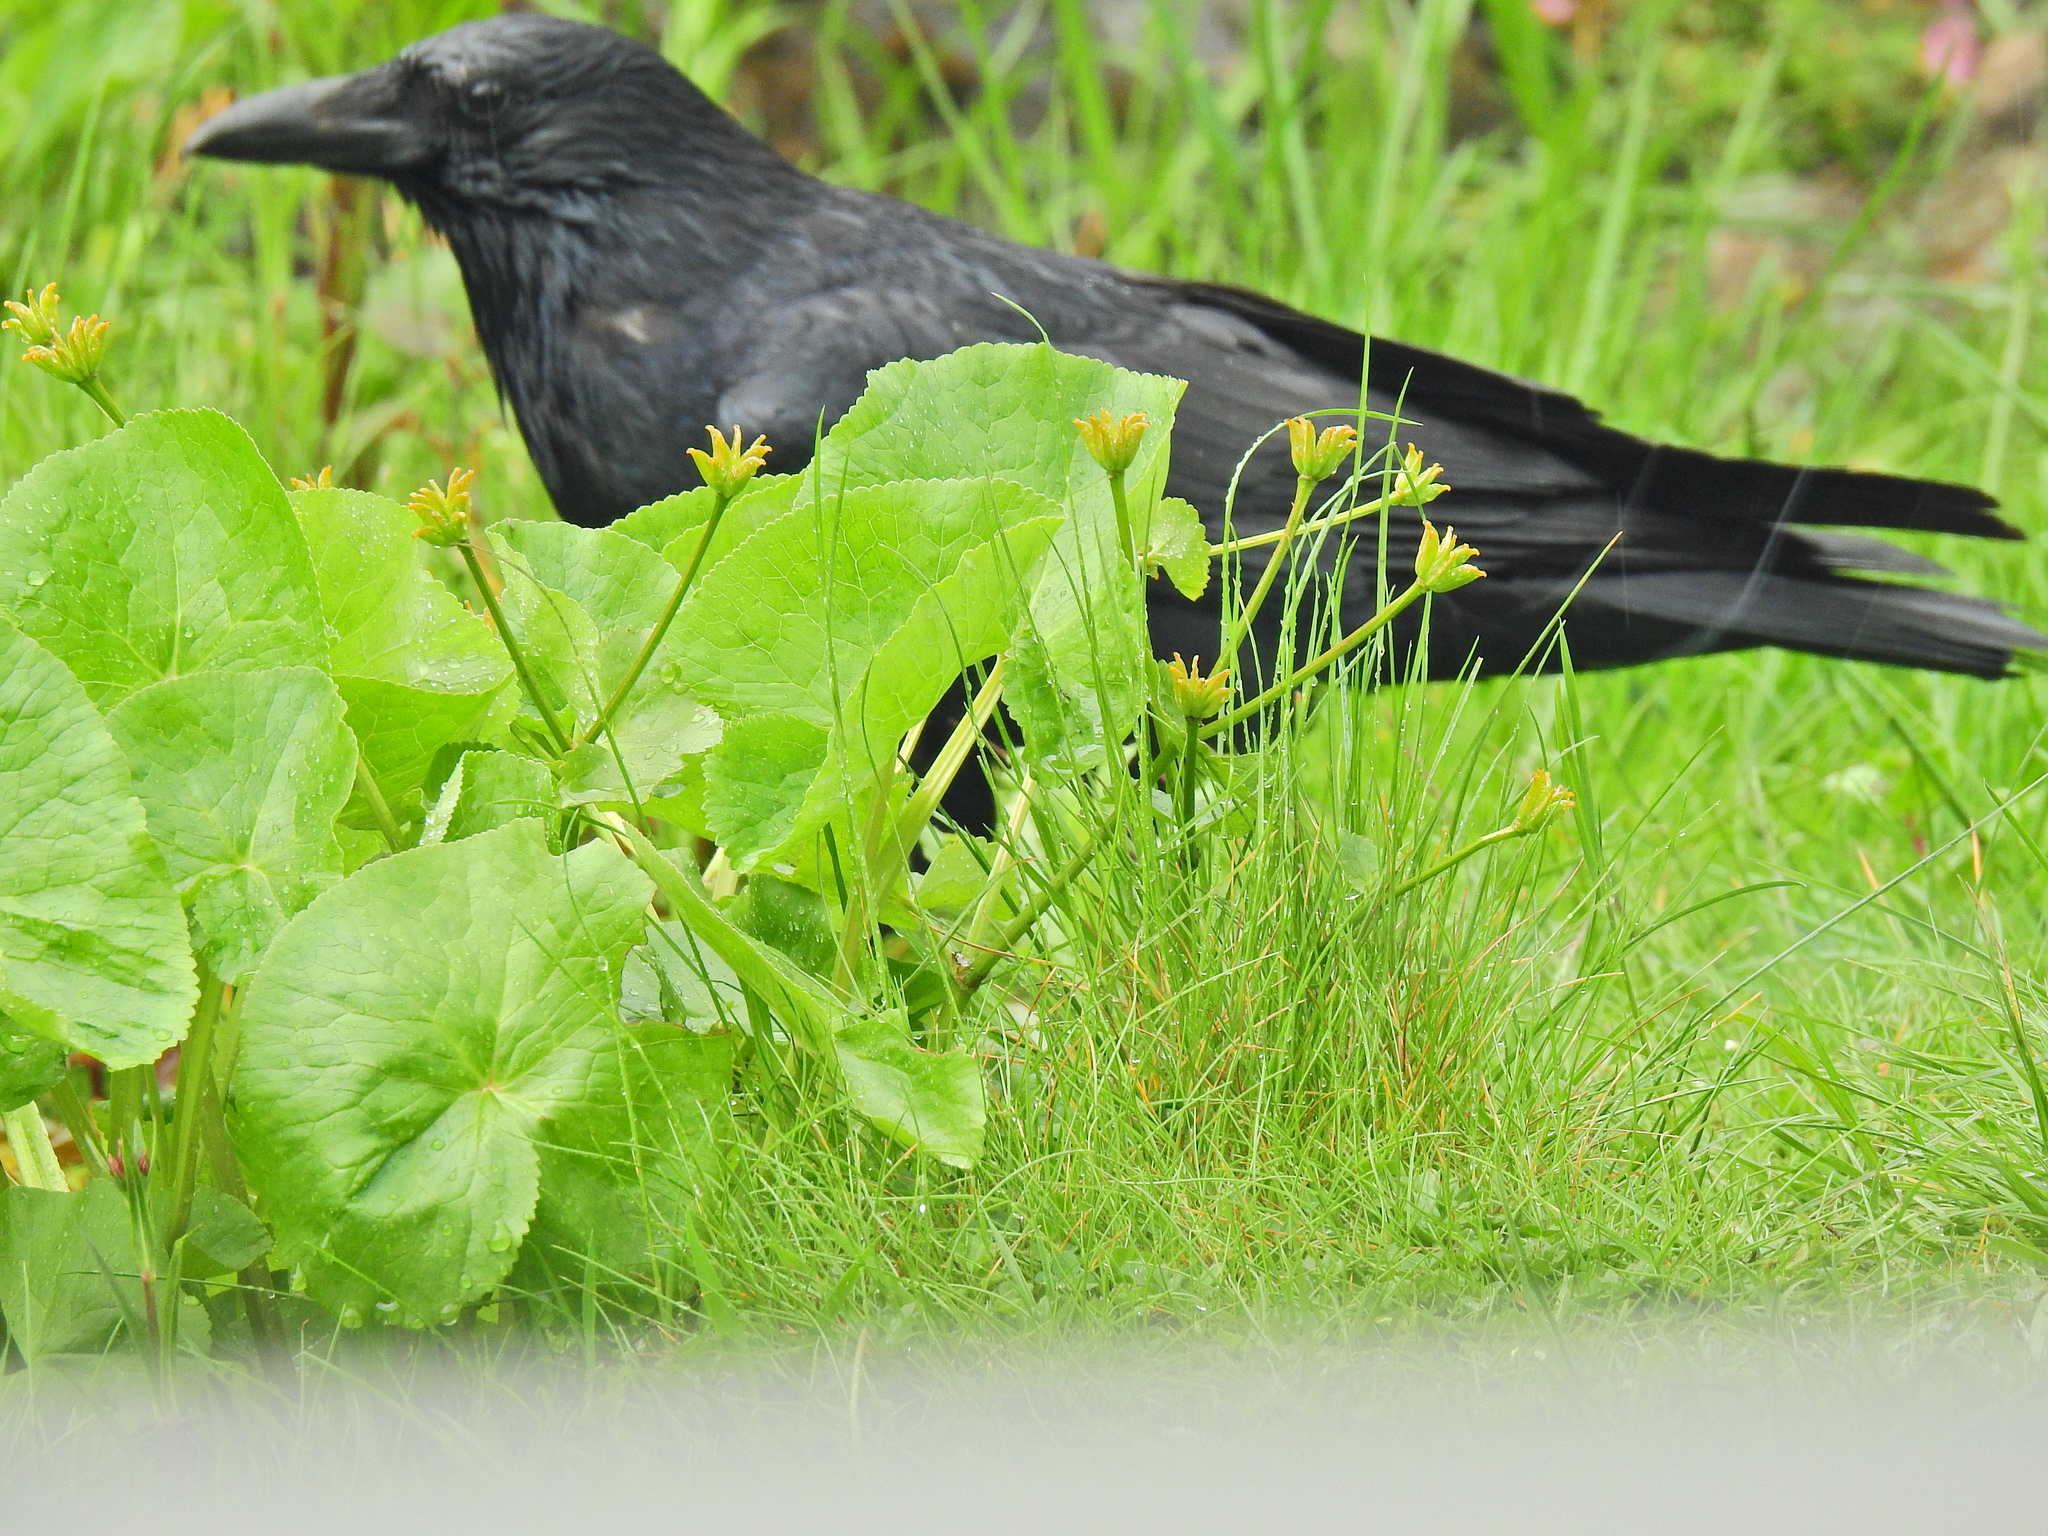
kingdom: Animalia
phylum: Chordata
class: Aves
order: Passeriformes
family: Corvidae
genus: Corvus
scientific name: Corvus corone
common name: Carrion crow
